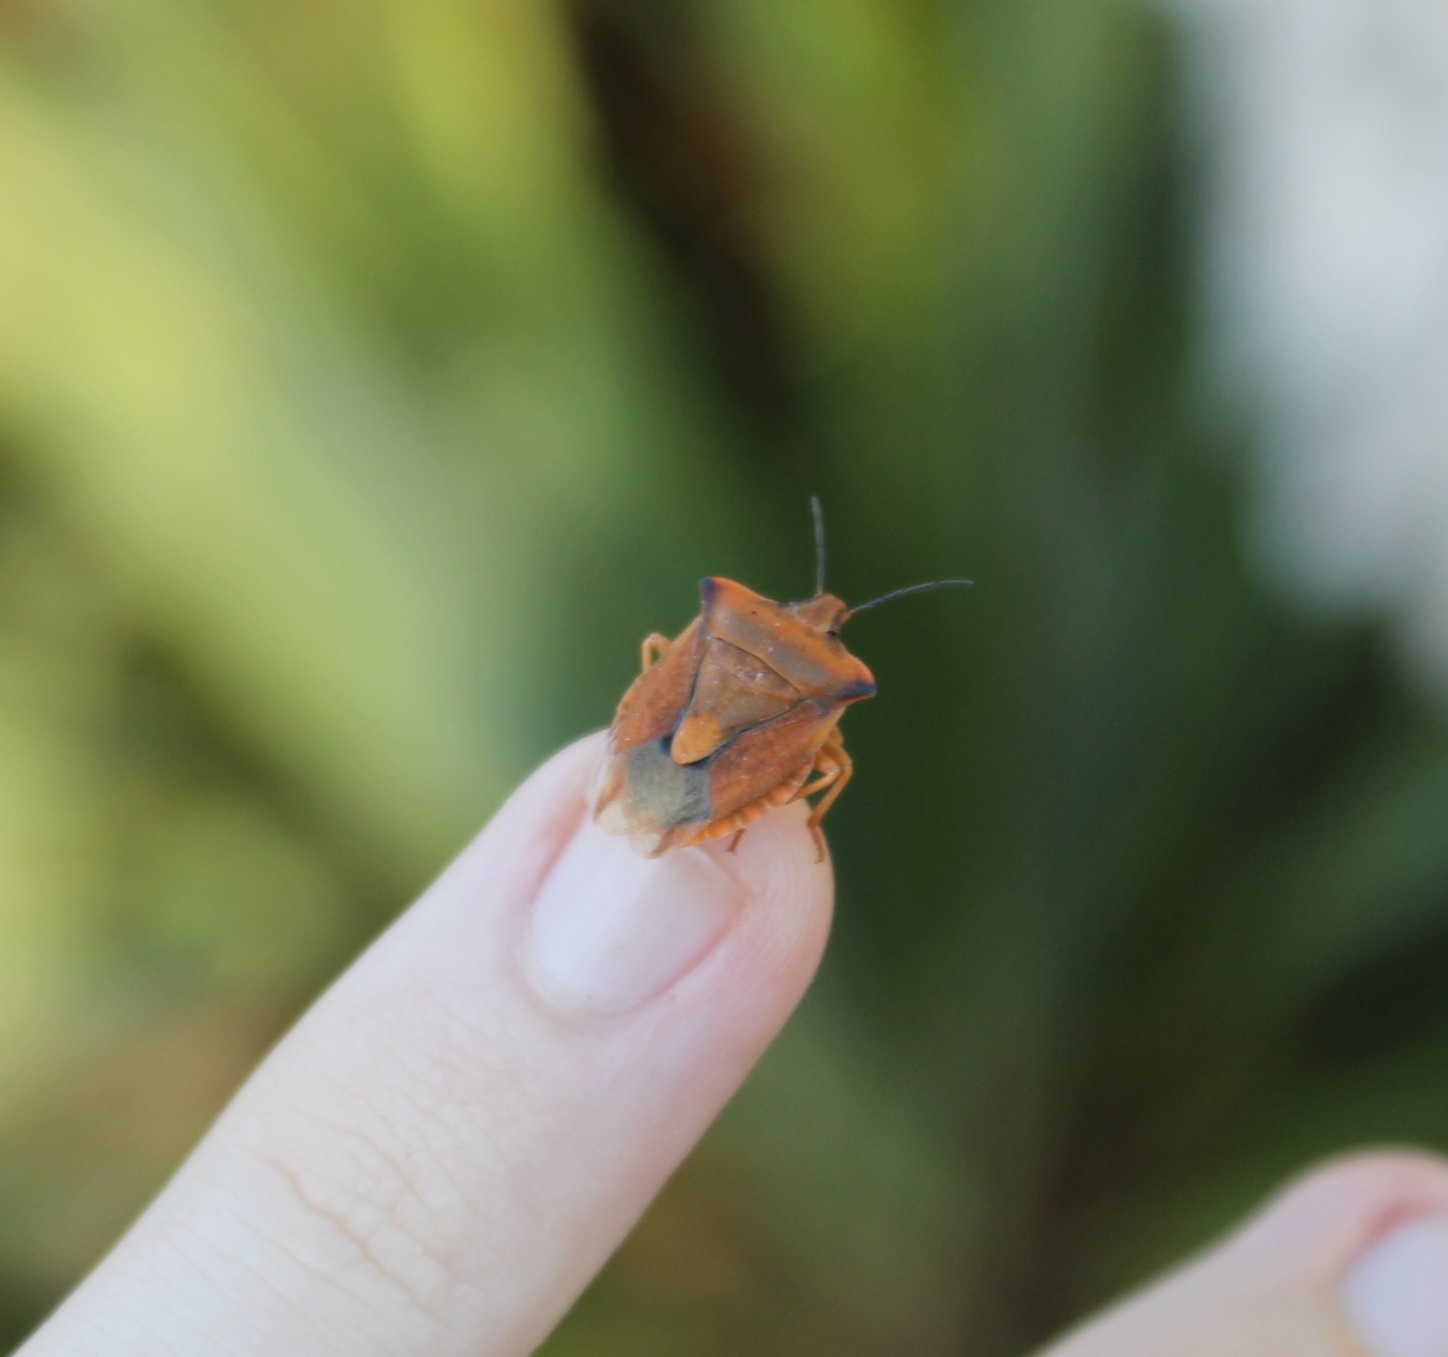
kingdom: Animalia
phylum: Arthropoda
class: Insecta
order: Hemiptera
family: Pentatomidae
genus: Carpocoris
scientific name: Carpocoris fuscispinus
